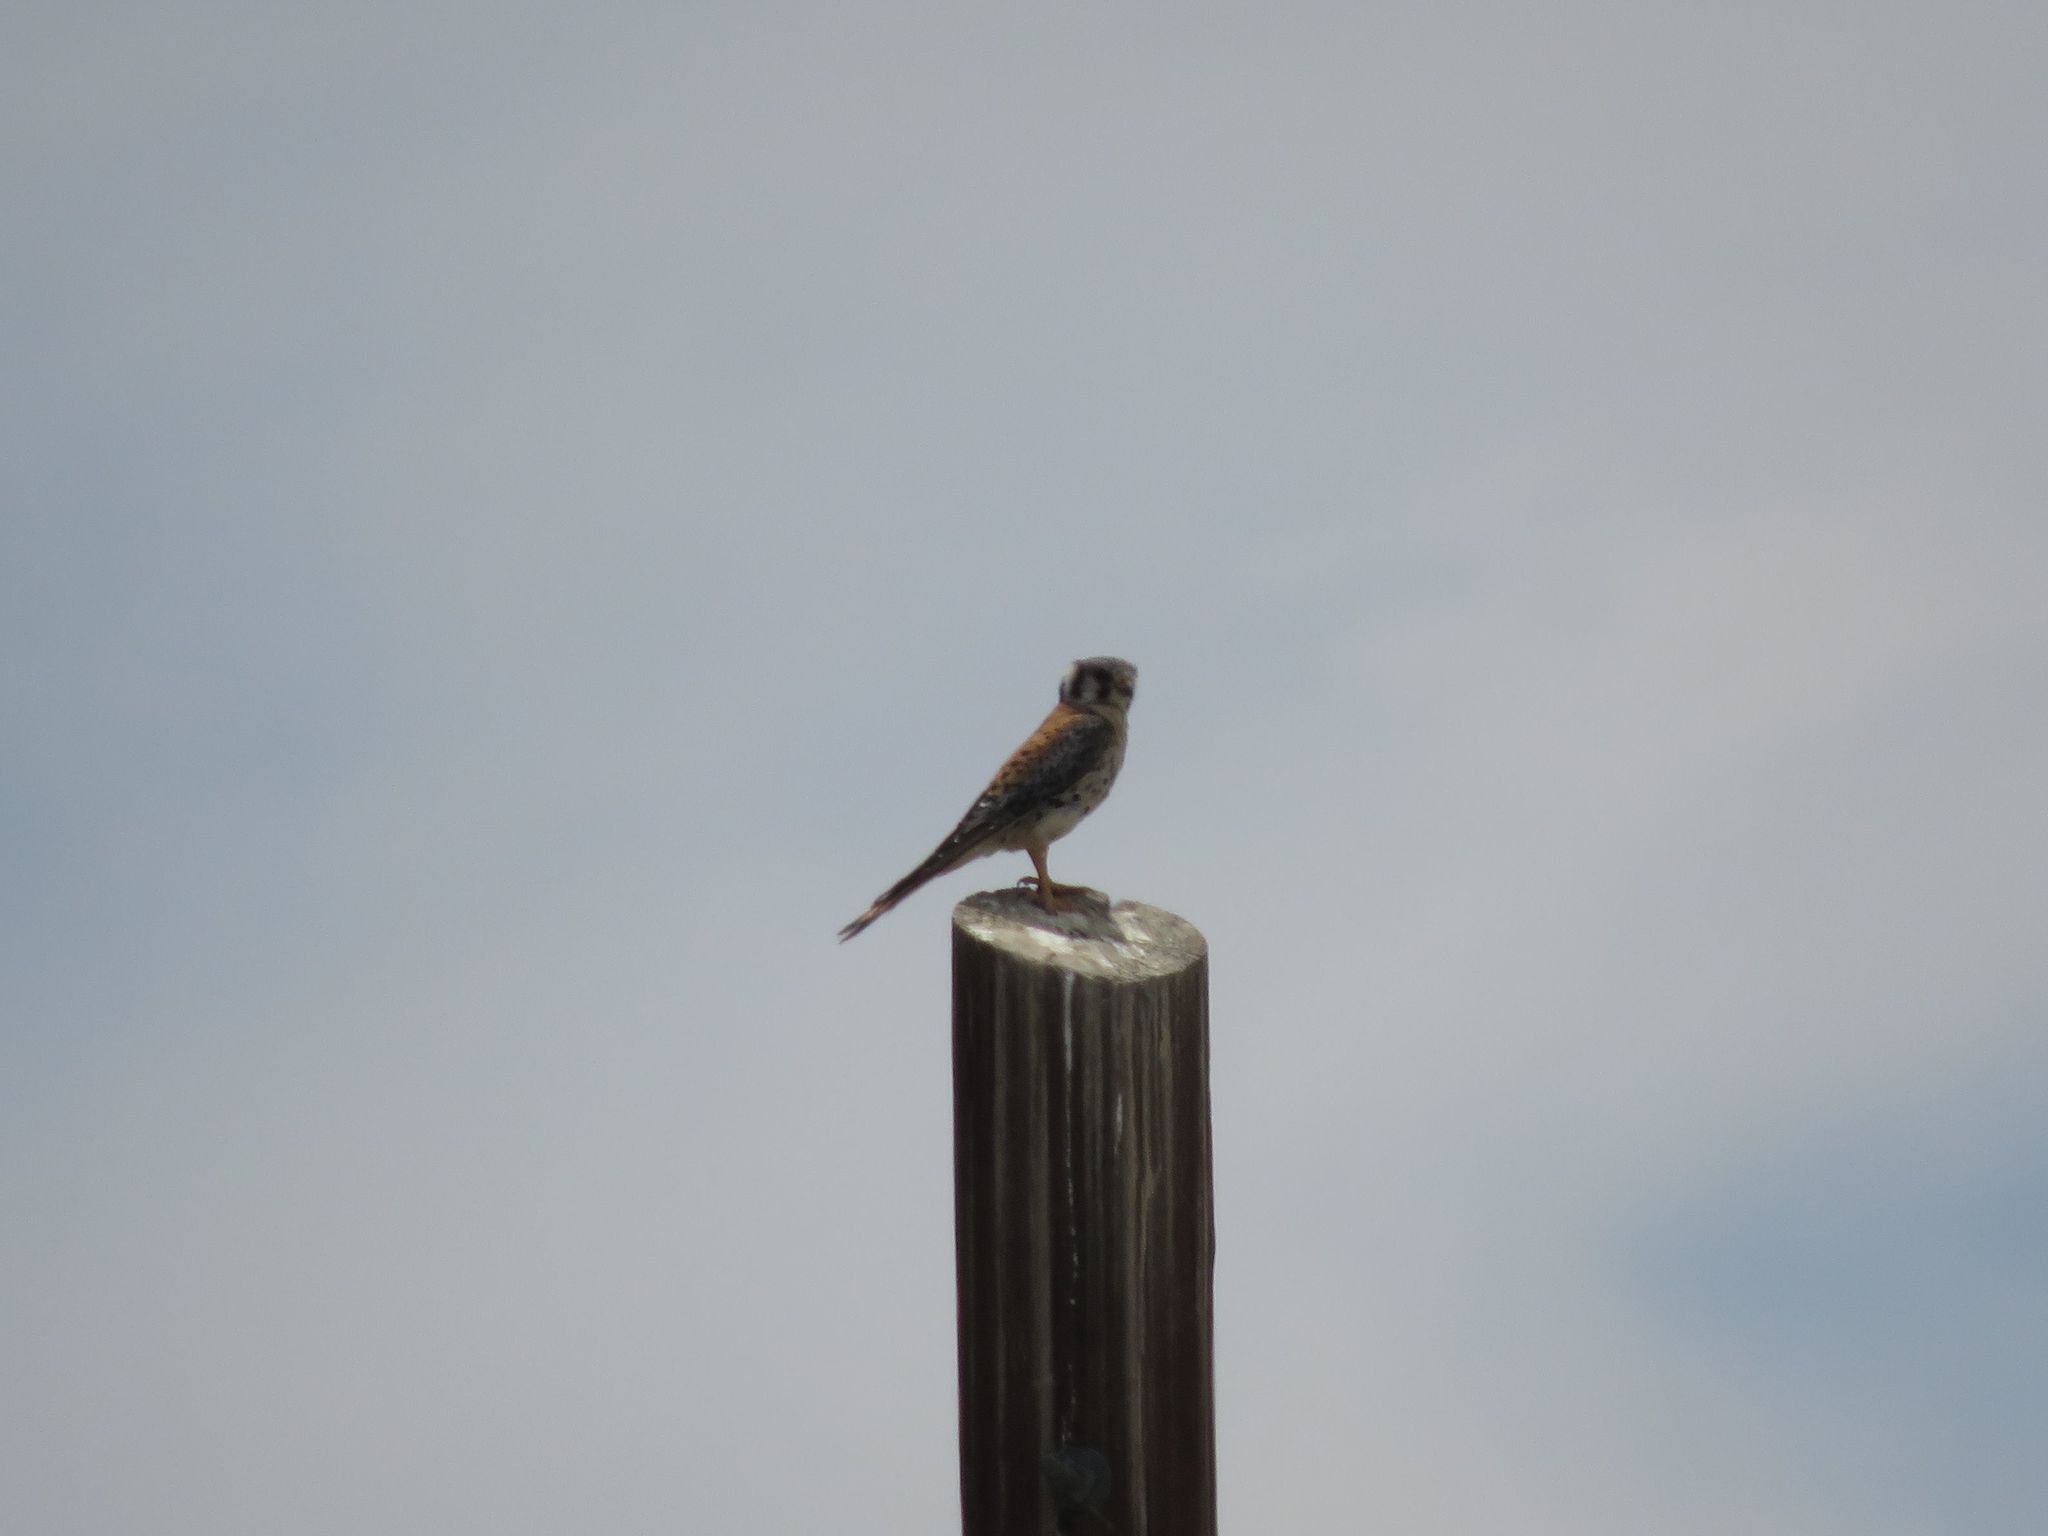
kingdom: Animalia
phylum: Chordata
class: Aves
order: Falconiformes
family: Falconidae
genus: Falco
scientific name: Falco sparverius
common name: American kestrel
